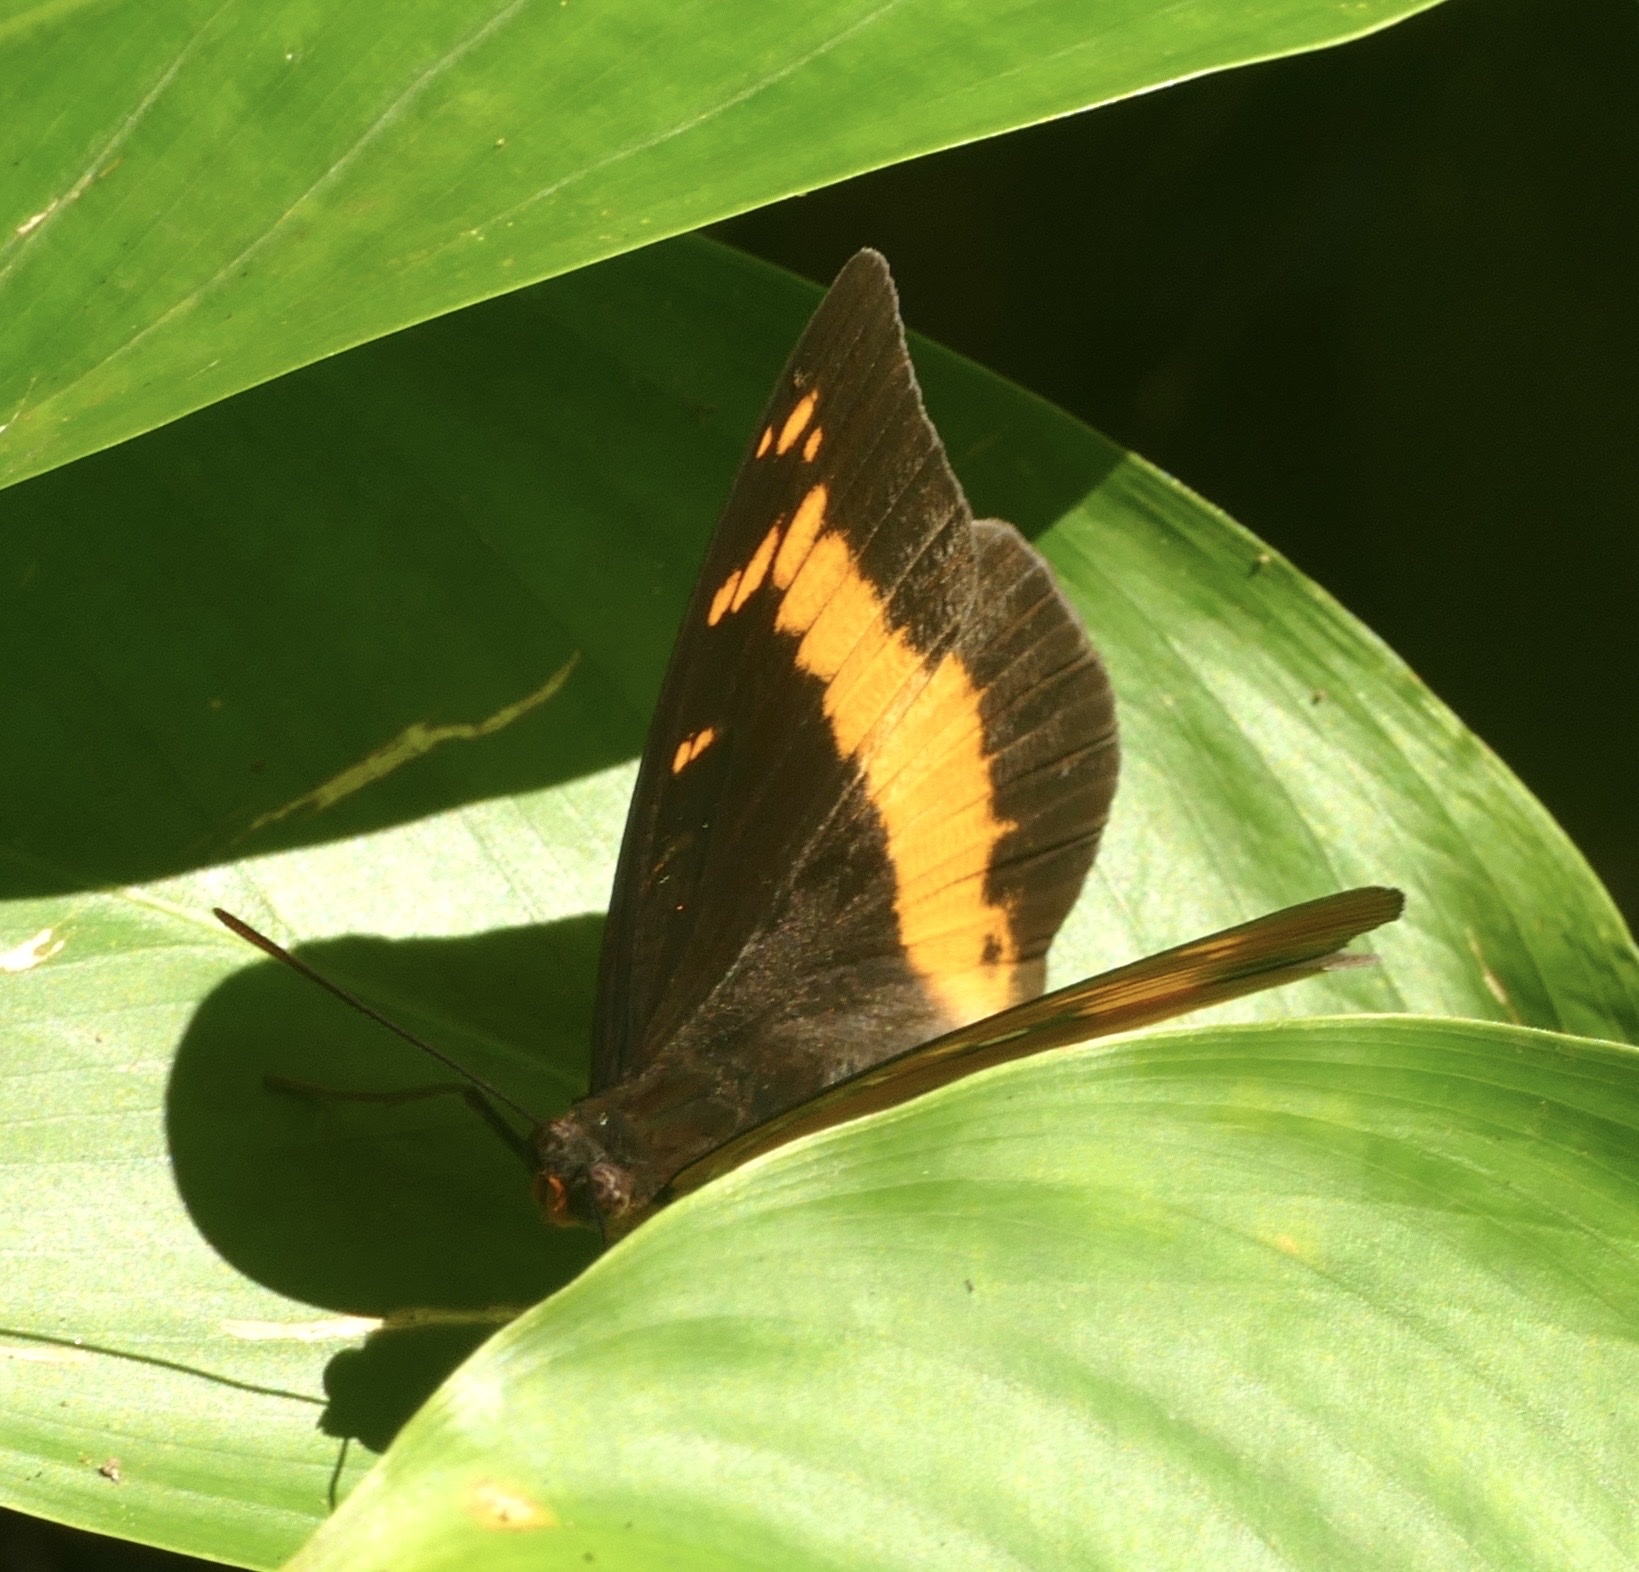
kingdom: Animalia
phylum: Arthropoda
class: Insecta
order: Lepidoptera
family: Nymphalidae
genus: Lexias
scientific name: Lexias aeropa
